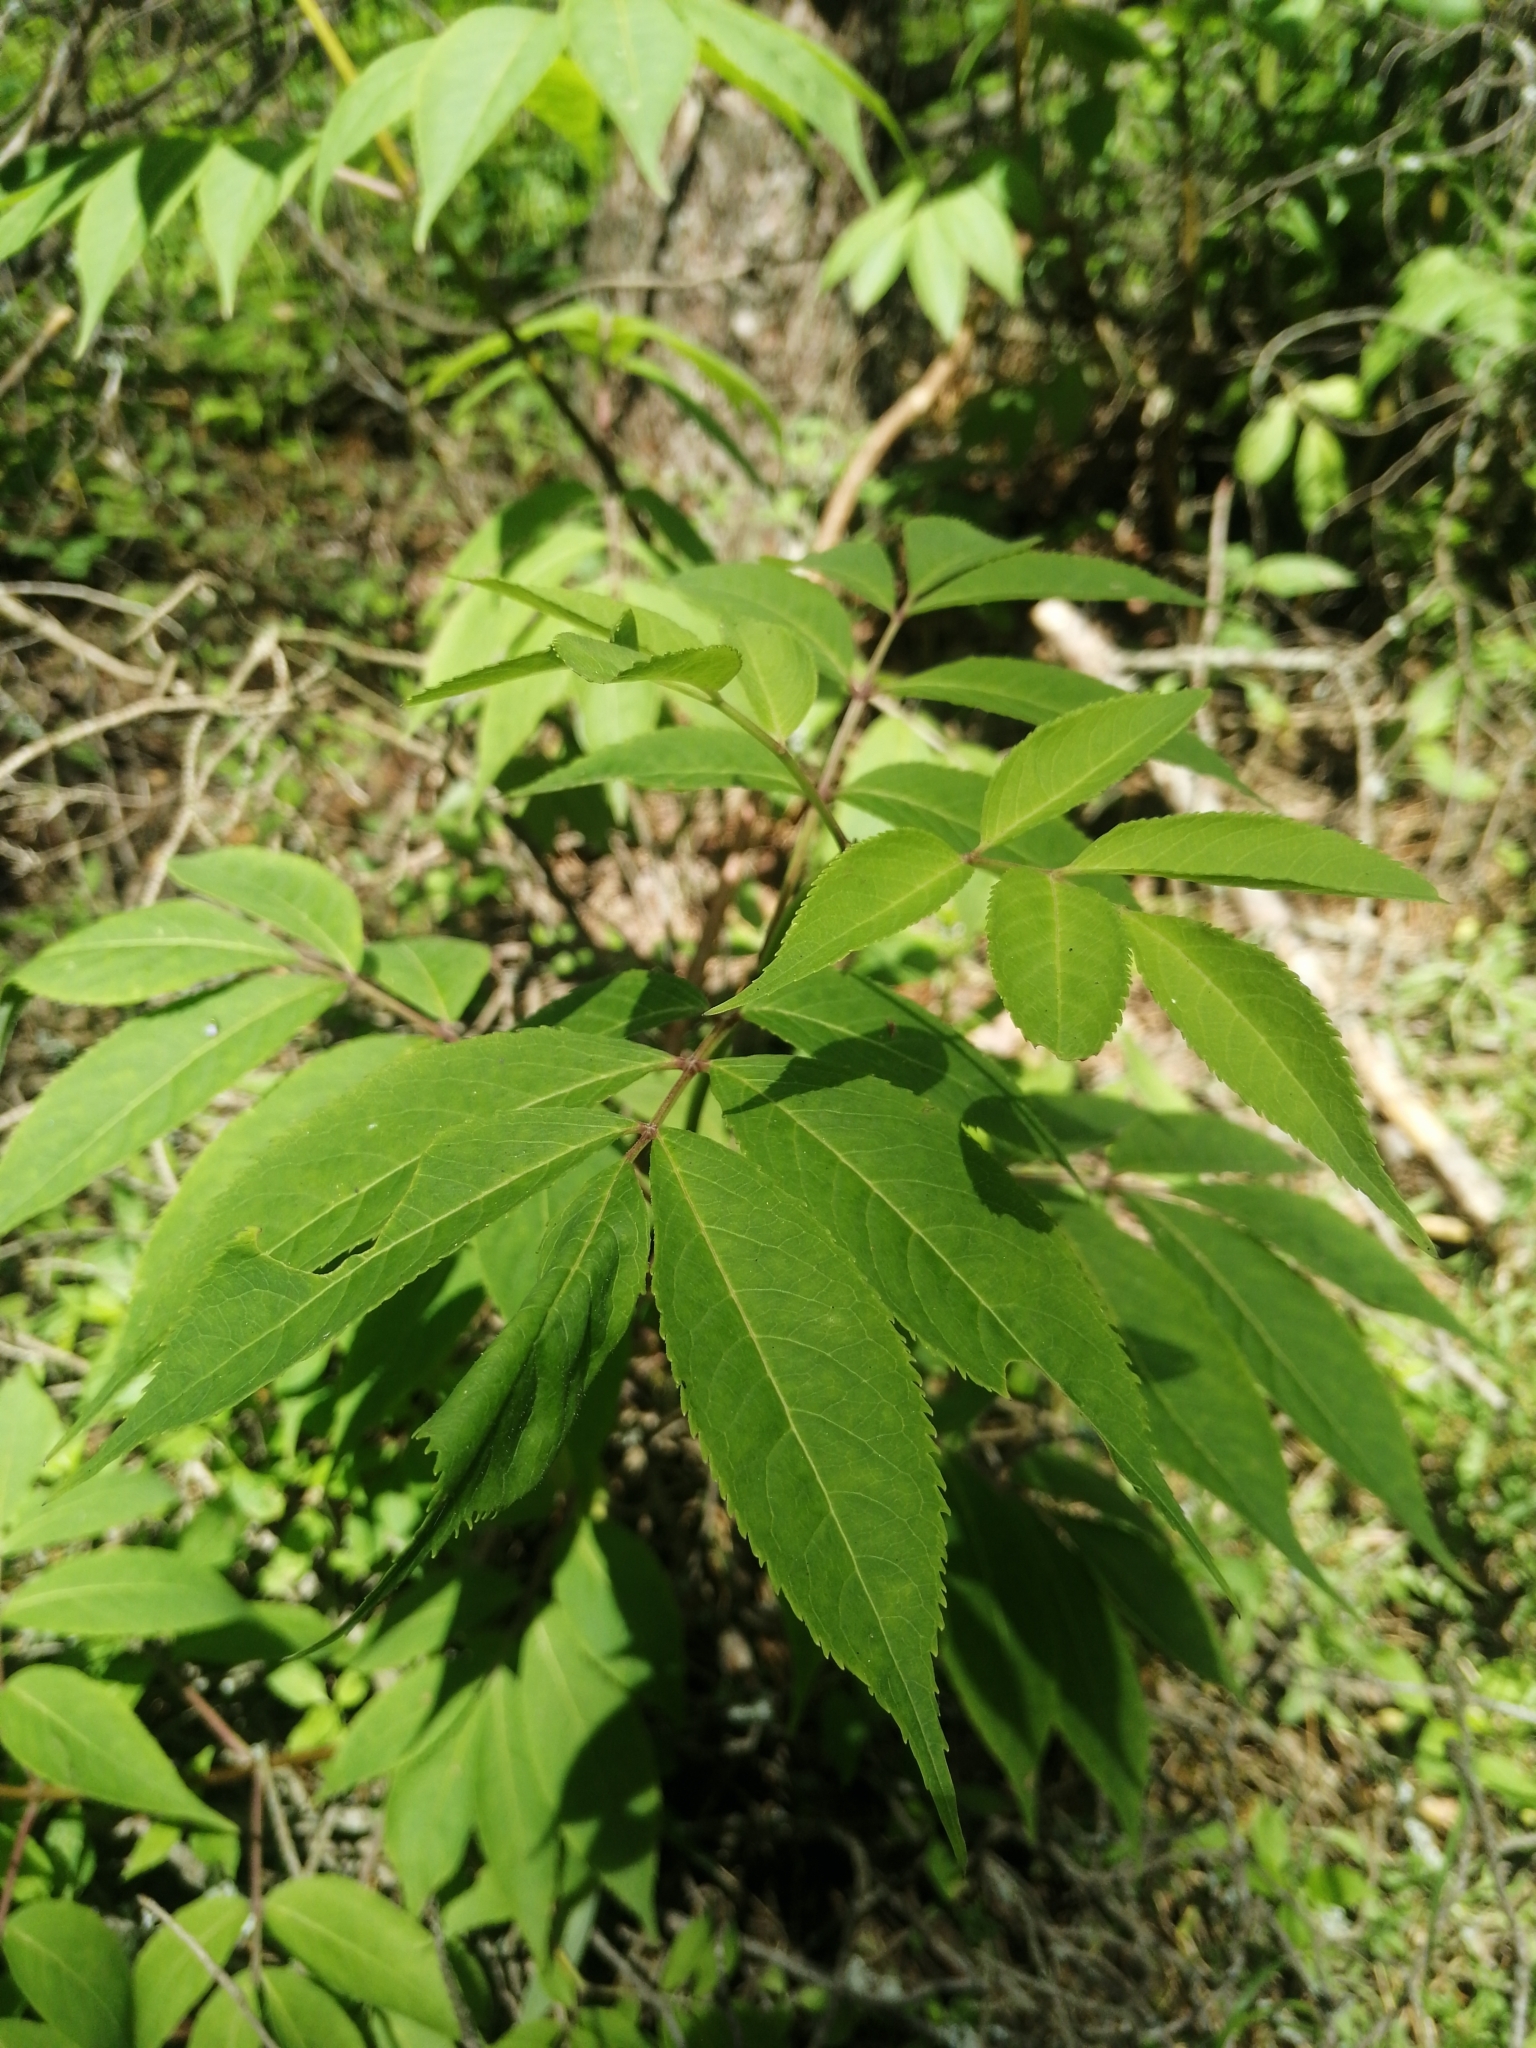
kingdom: Plantae
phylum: Tracheophyta
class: Magnoliopsida
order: Dipsacales
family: Viburnaceae
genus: Sambucus
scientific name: Sambucus racemosa
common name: Red-berried elder
